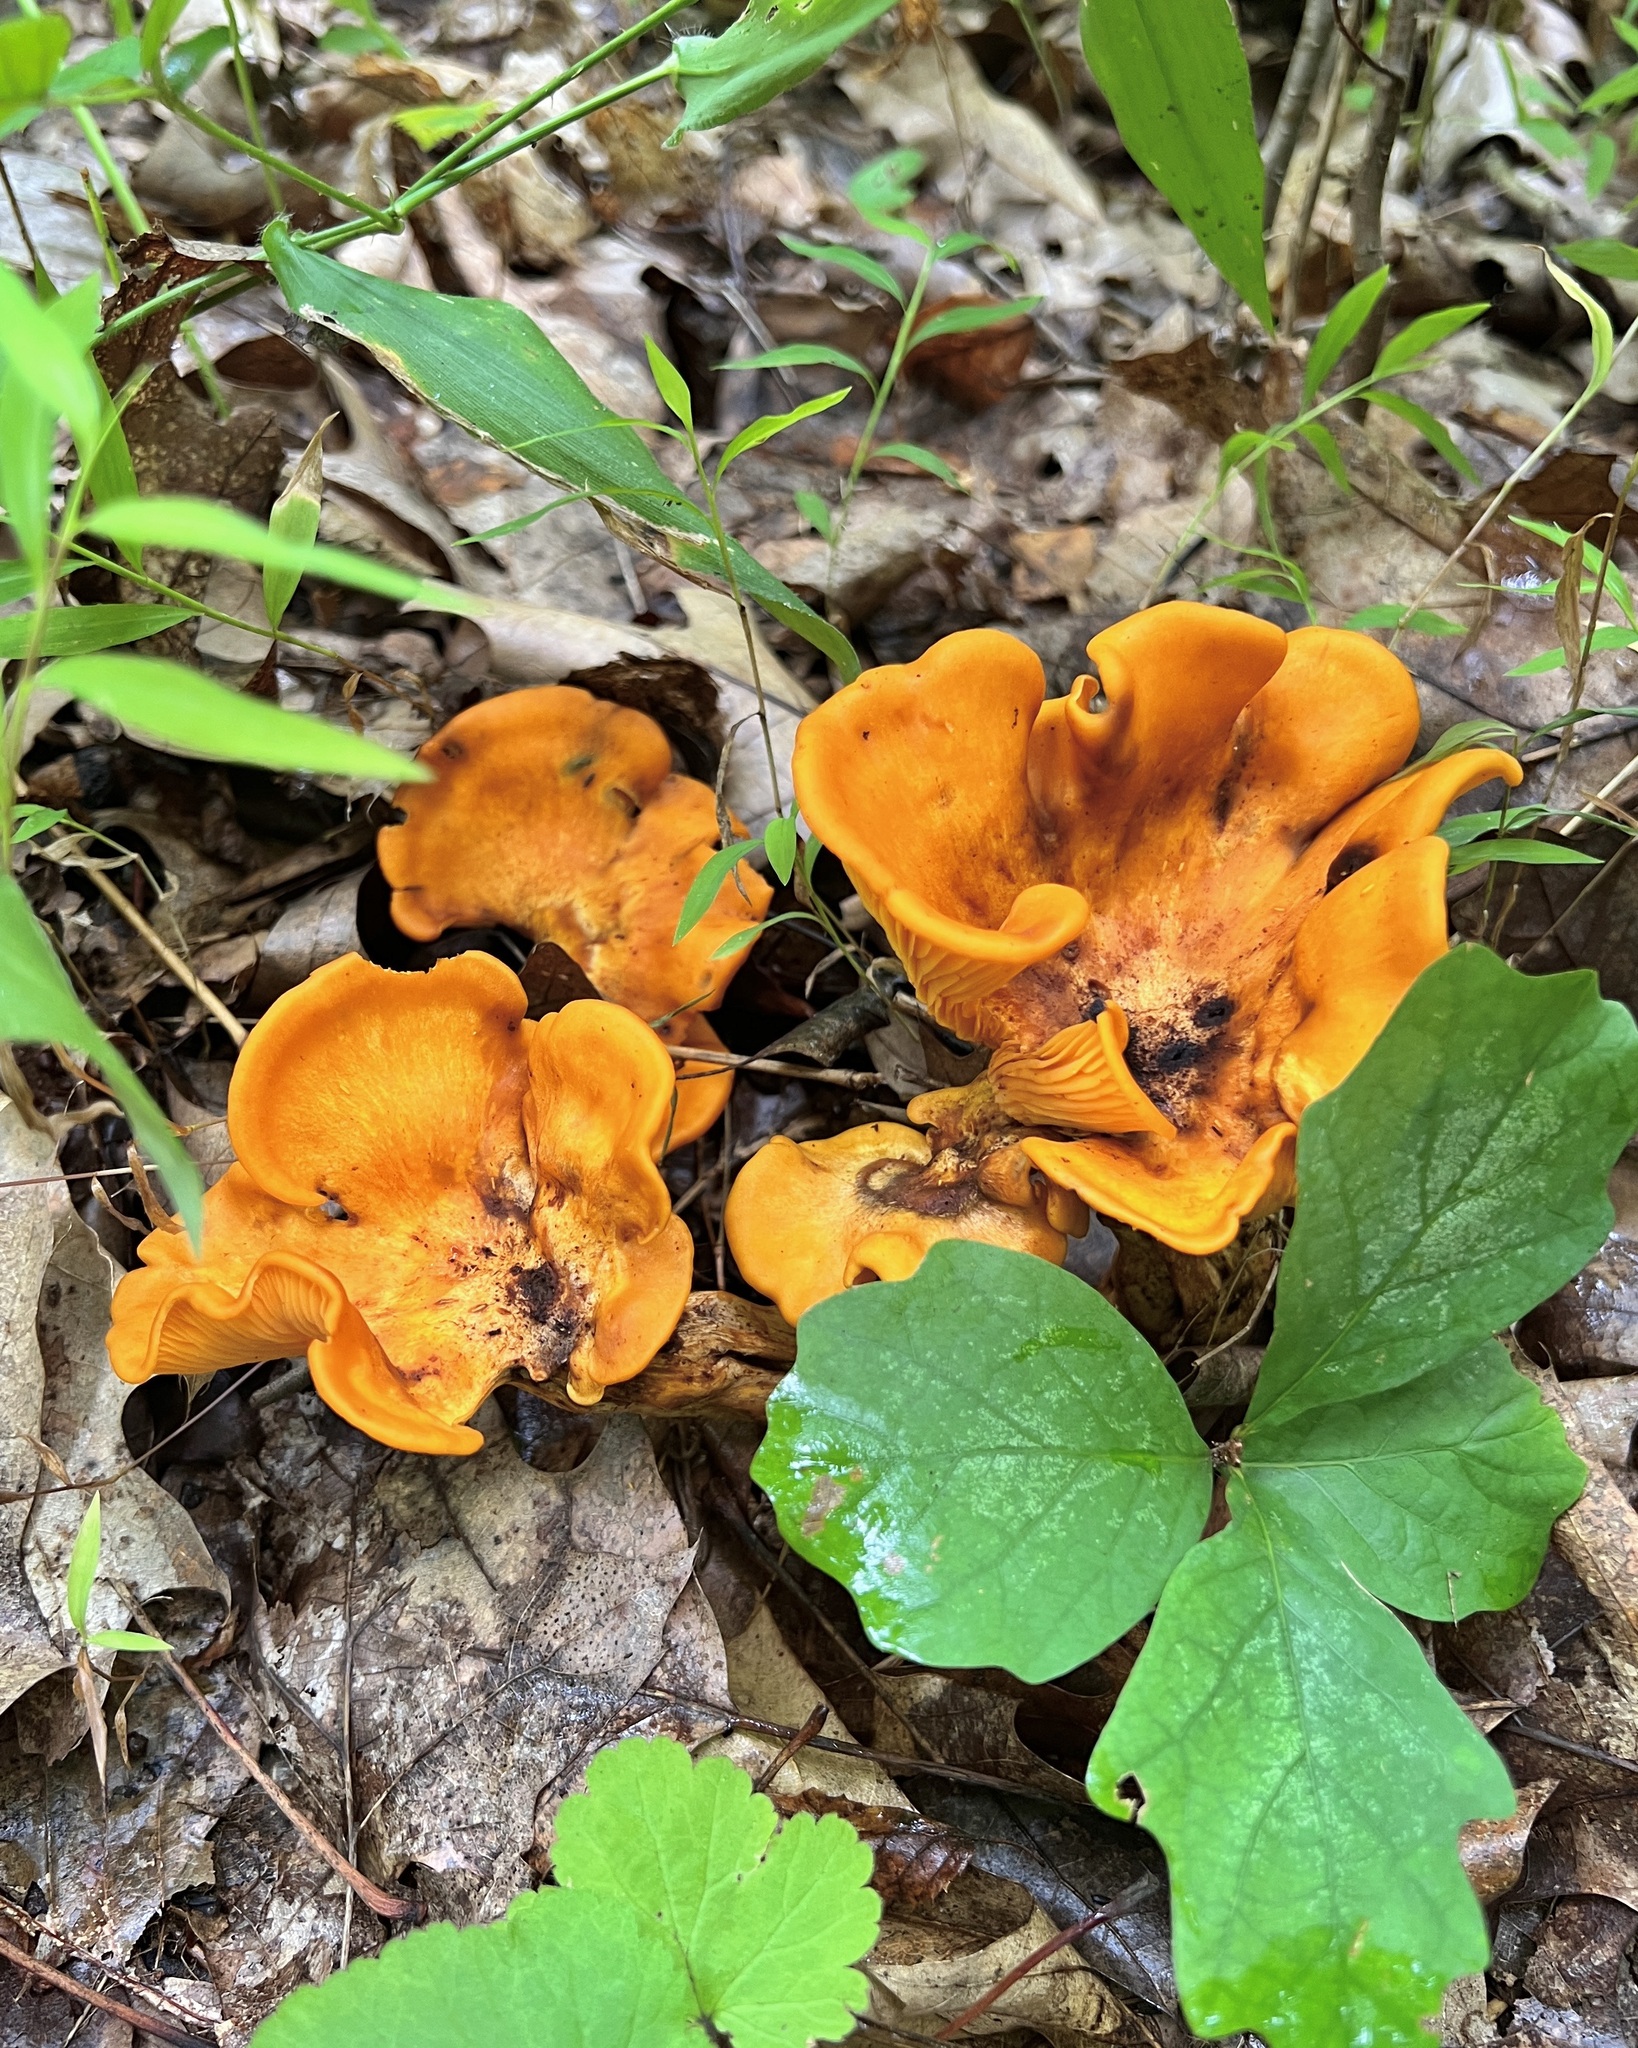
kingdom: Fungi
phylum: Basidiomycota
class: Agaricomycetes
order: Agaricales
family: Omphalotaceae
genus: Omphalotus
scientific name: Omphalotus illudens
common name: Jack o lantern
